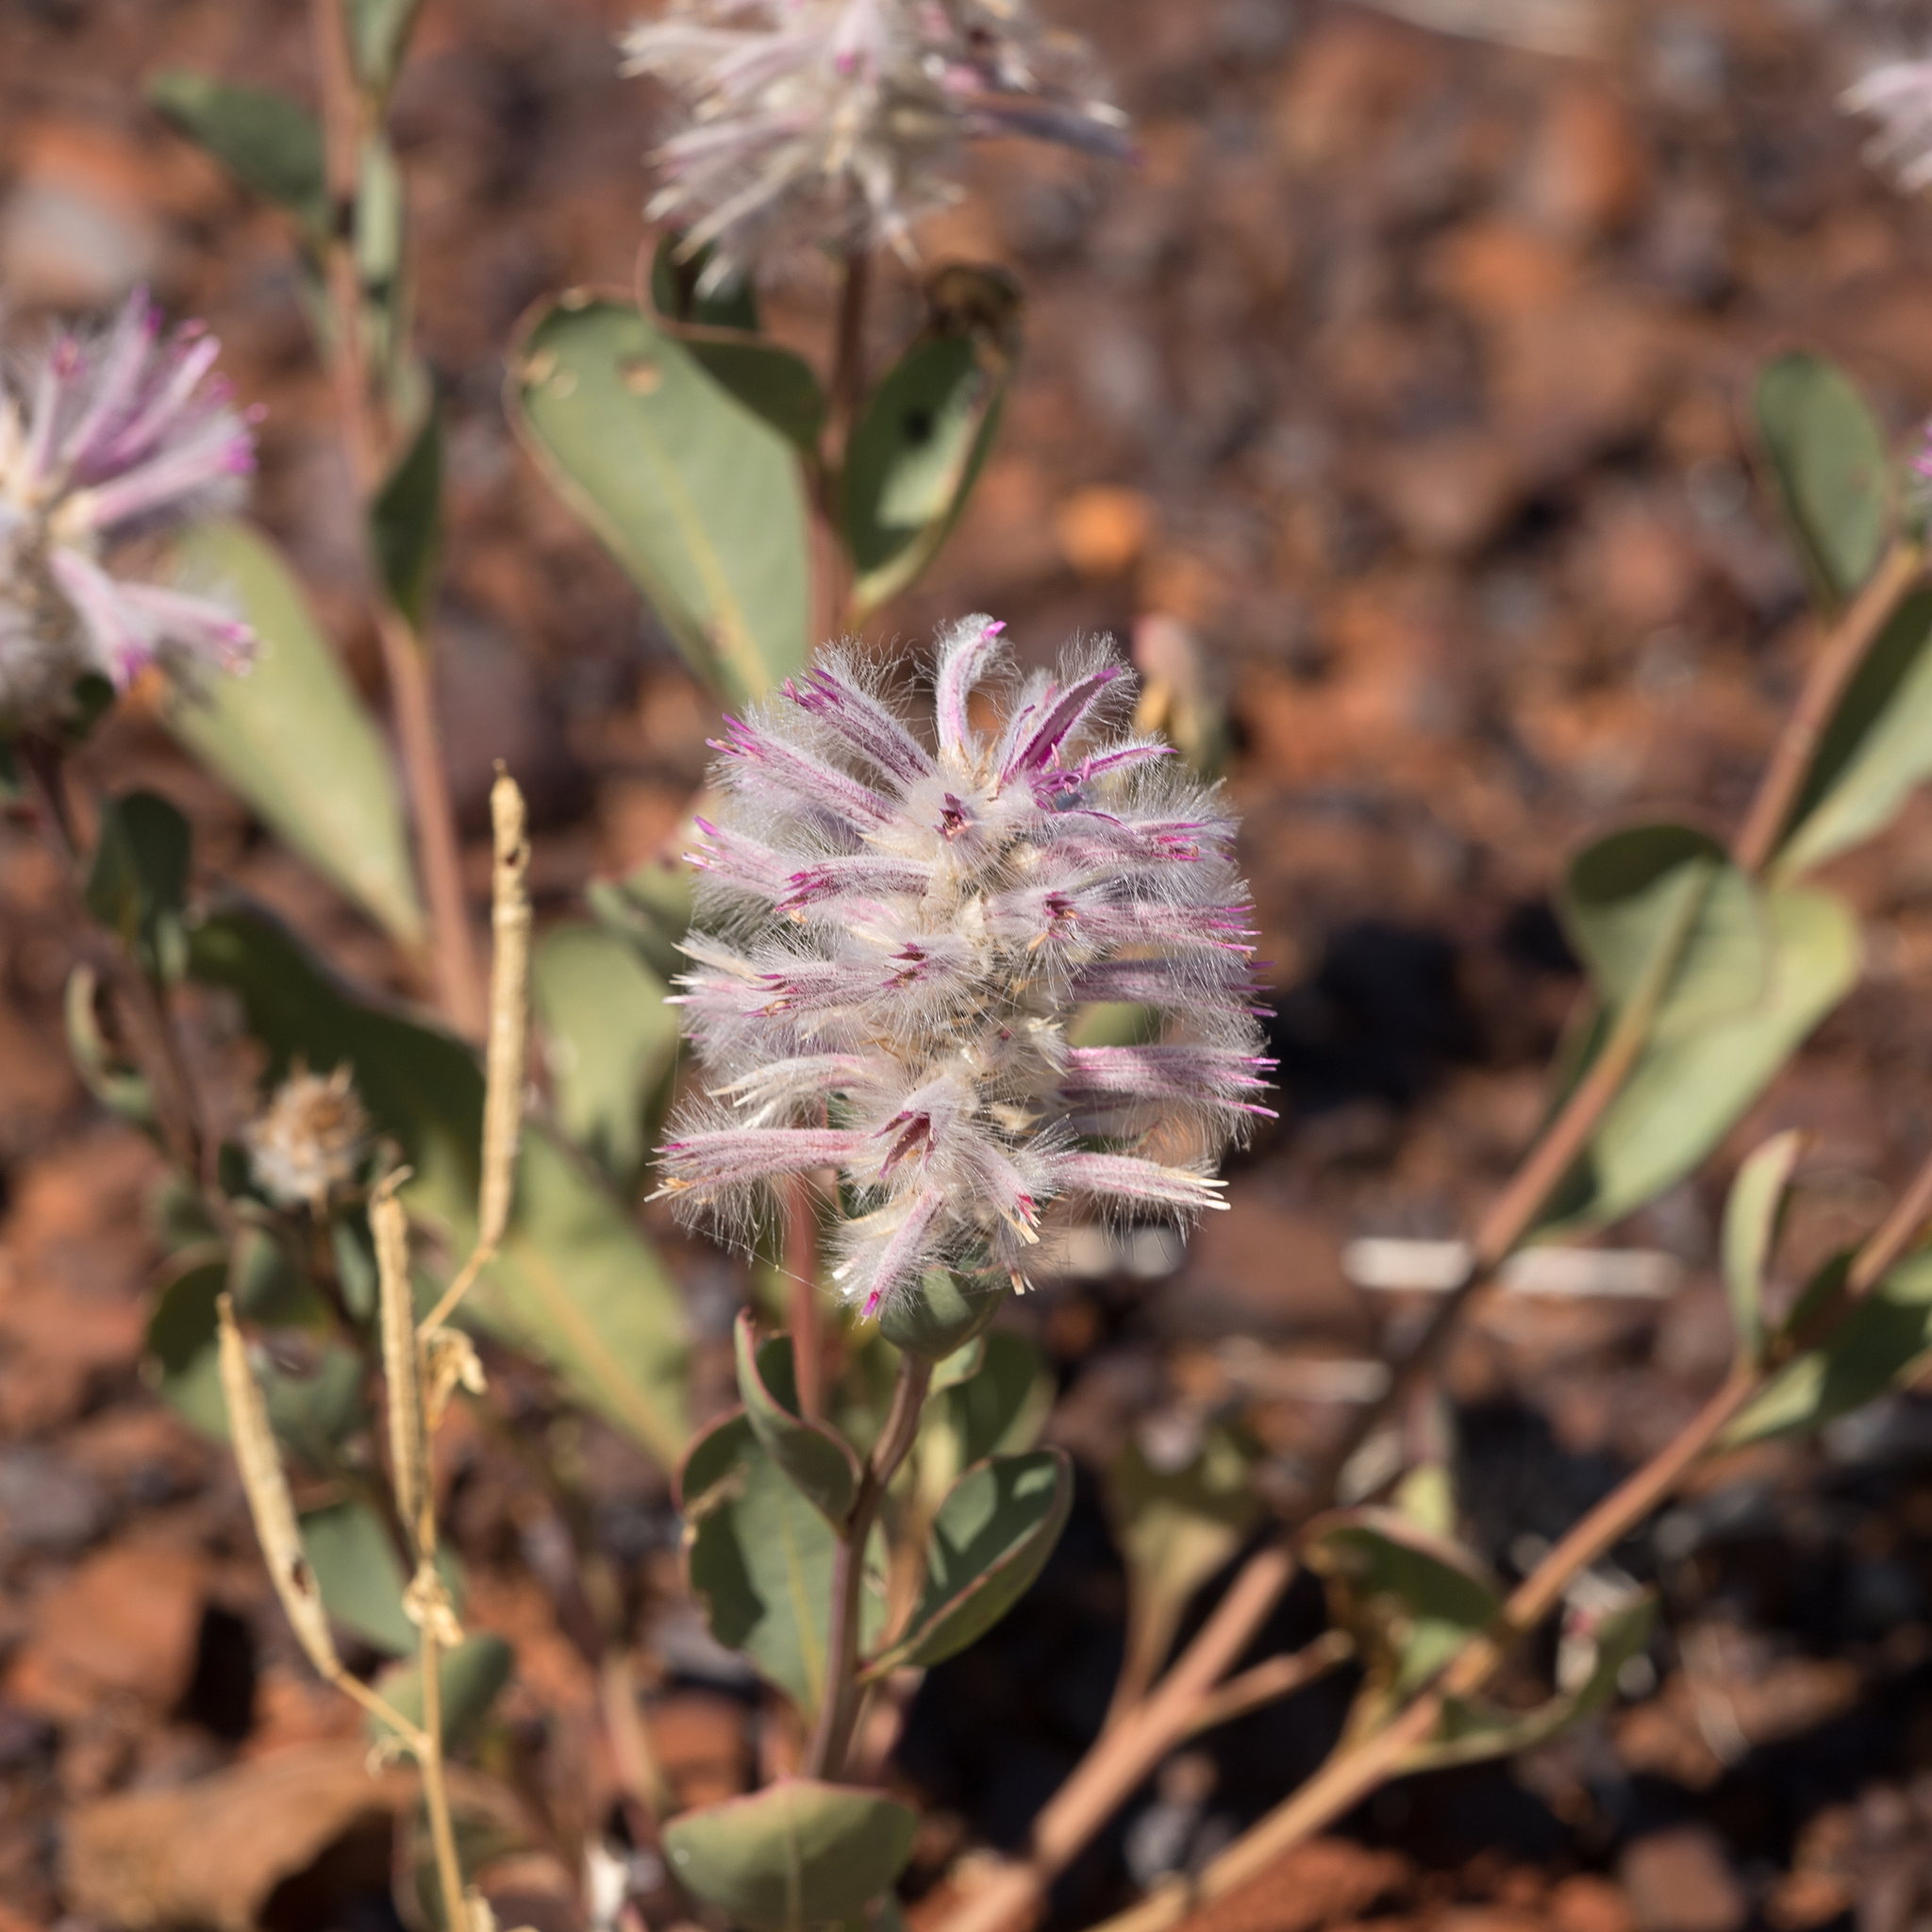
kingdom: Plantae
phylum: Tracheophyta
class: Magnoliopsida
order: Caryophyllales
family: Amaranthaceae
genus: Ptilotus
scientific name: Ptilotus exaltatus
